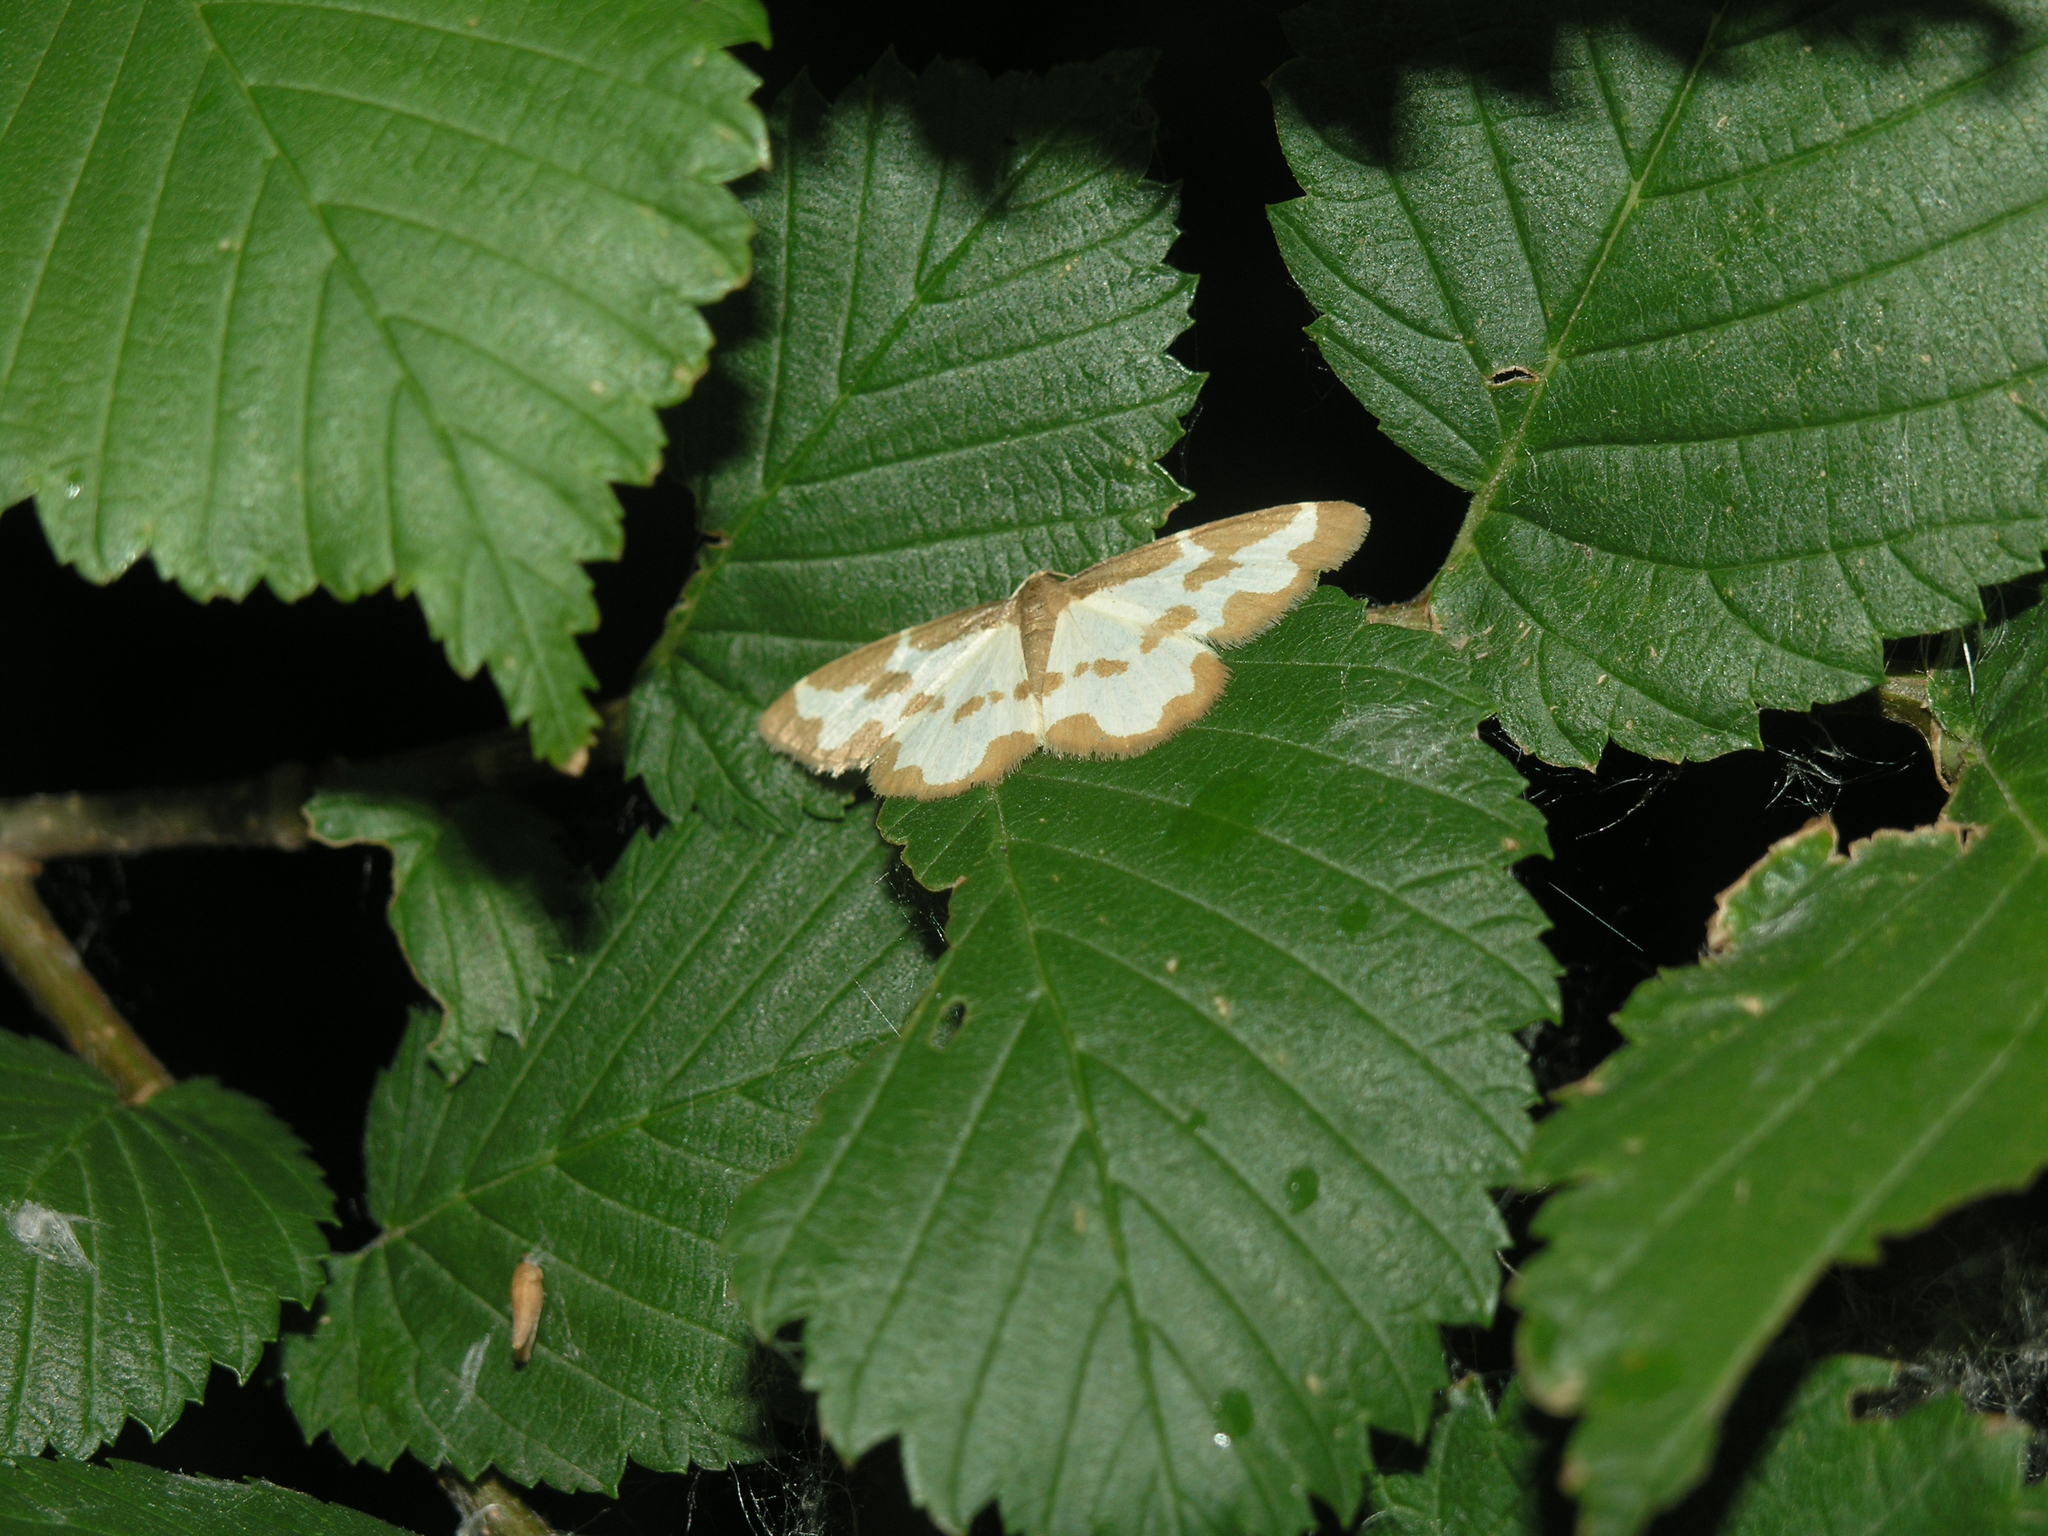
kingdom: Animalia
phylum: Arthropoda
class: Insecta
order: Lepidoptera
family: Geometridae
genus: Lomaspilis
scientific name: Lomaspilis marginata
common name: Clouded border
